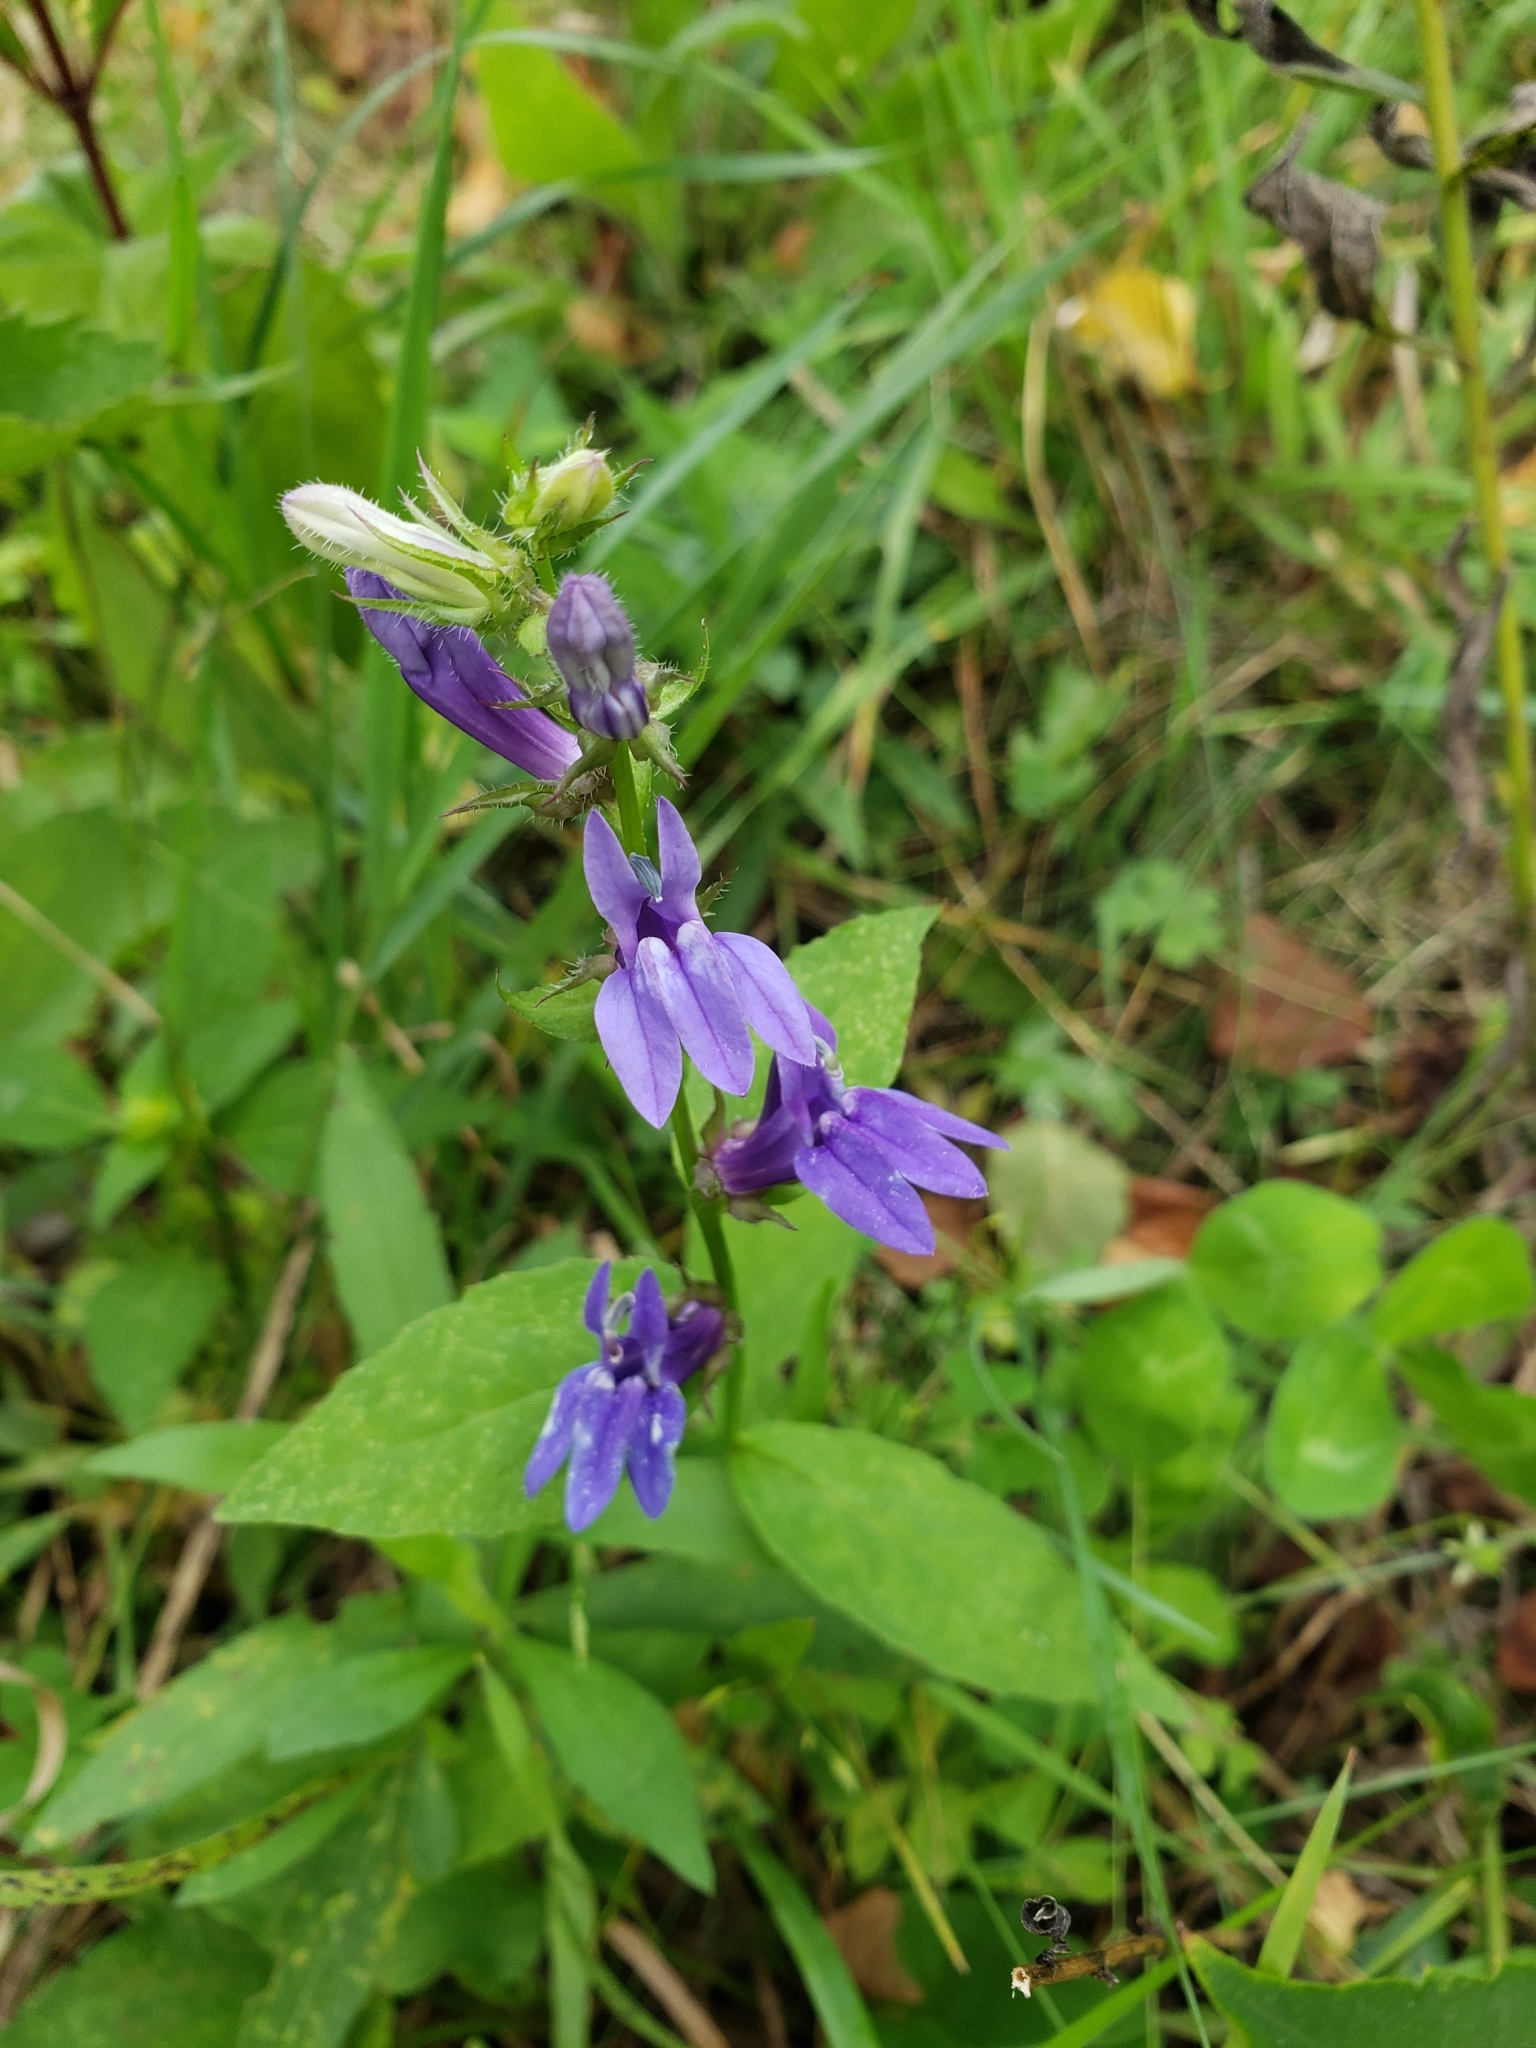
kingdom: Plantae
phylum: Tracheophyta
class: Magnoliopsida
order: Asterales
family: Campanulaceae
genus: Lobelia
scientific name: Lobelia siphilitica
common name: Great lobelia
